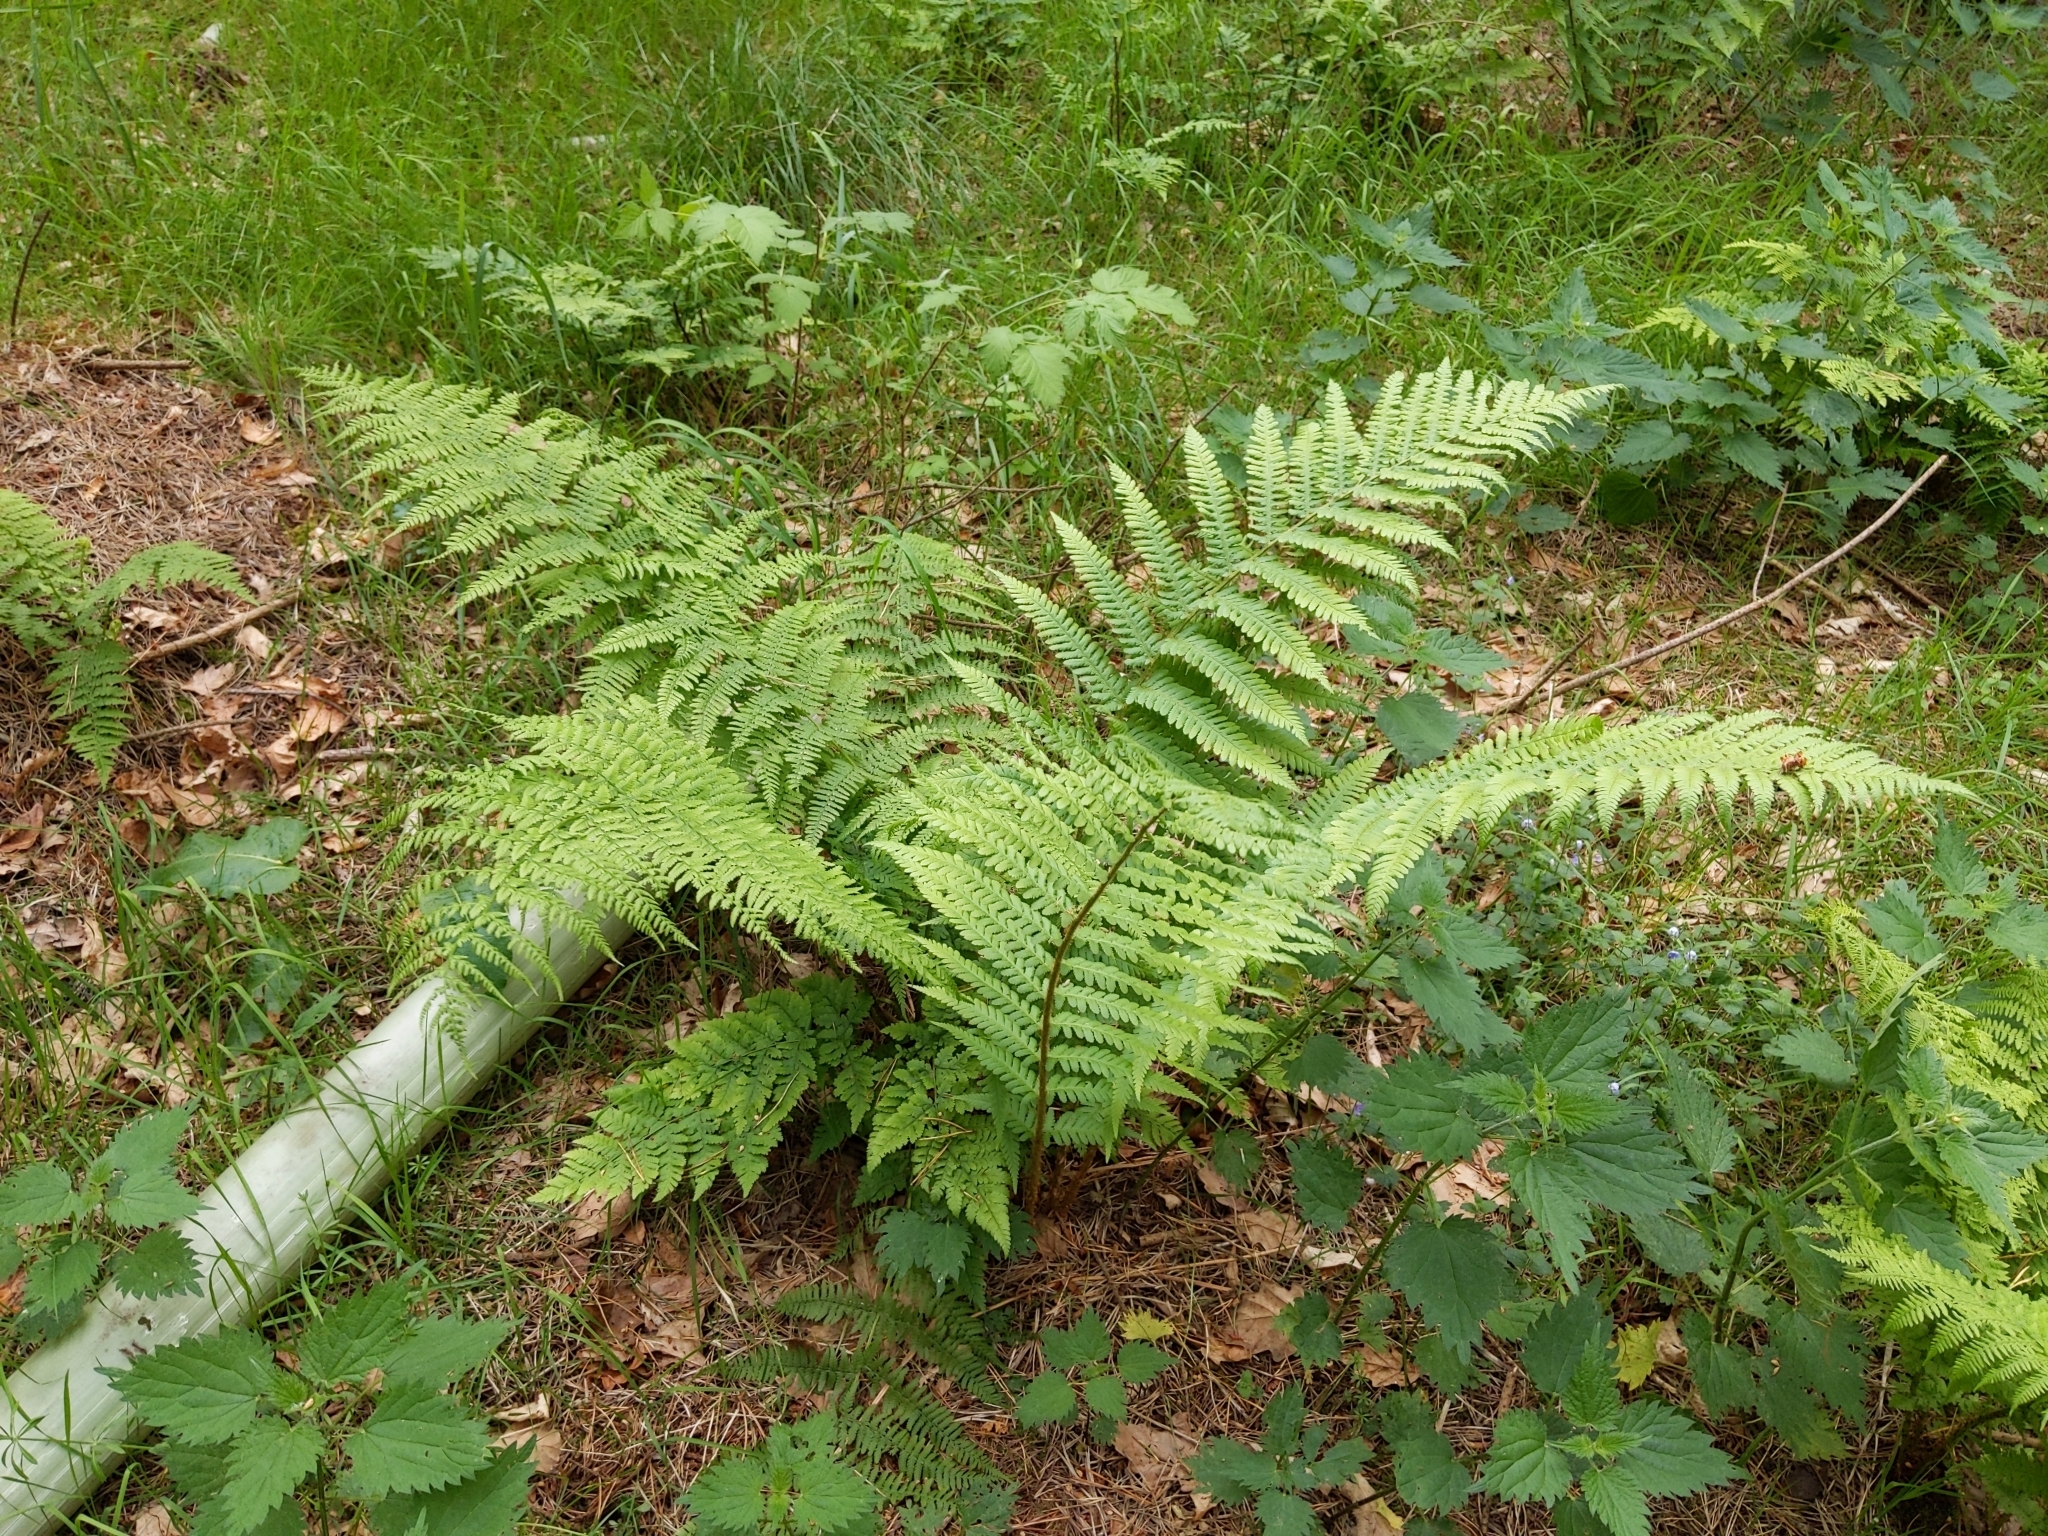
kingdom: Plantae
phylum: Tracheophyta
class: Polypodiopsida
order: Polypodiales
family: Dryopteridaceae
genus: Dryopteris
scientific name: Dryopteris filix-mas
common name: Male fern
